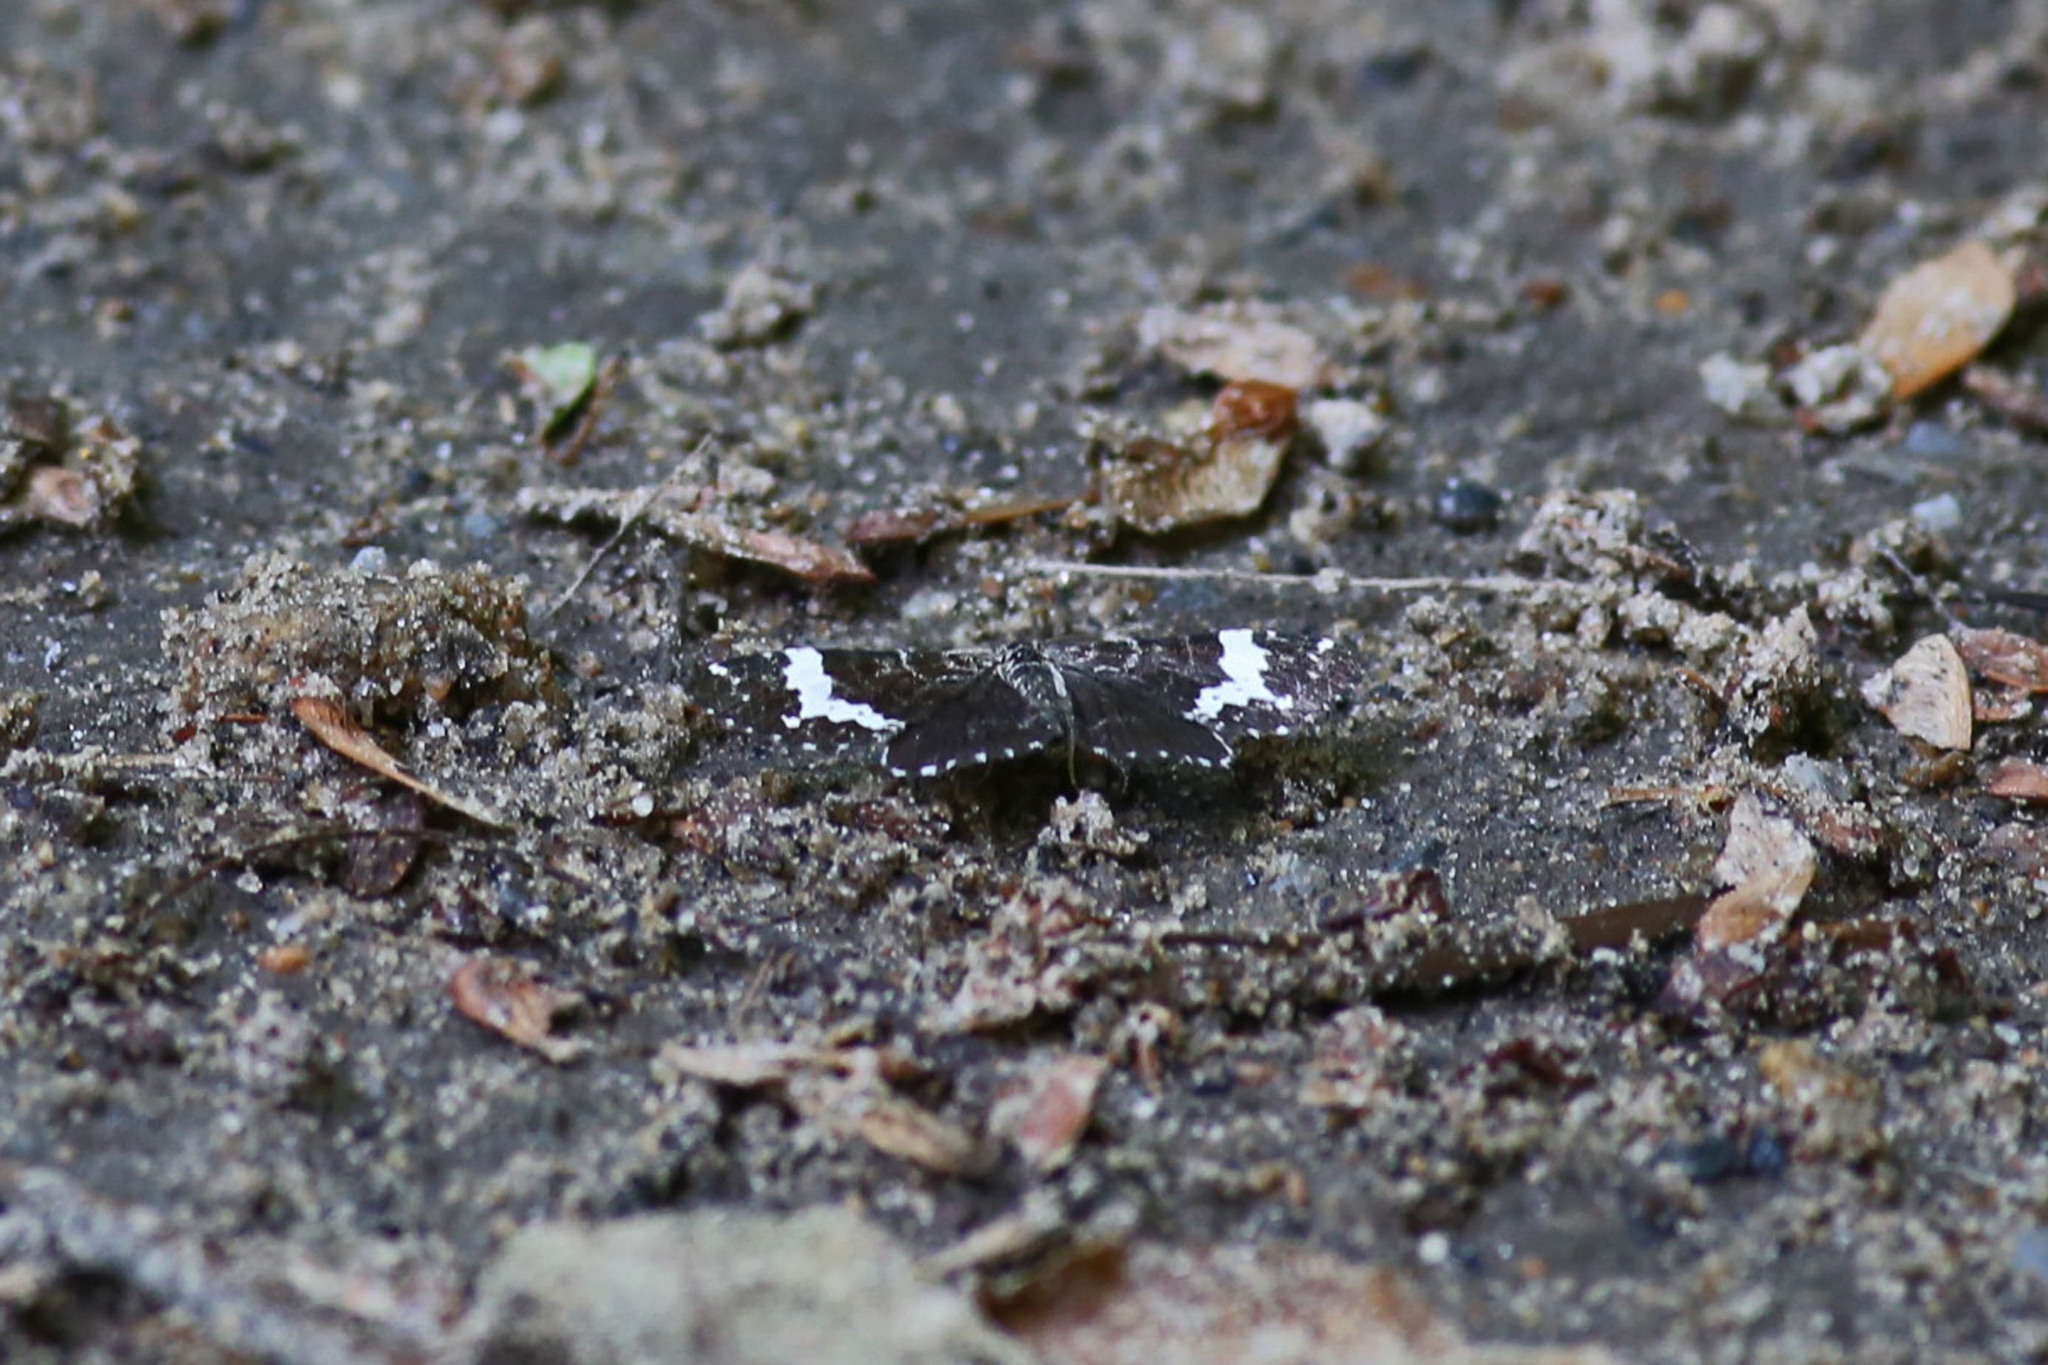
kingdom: Animalia
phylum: Arthropoda
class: Insecta
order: Lepidoptera
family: Geometridae
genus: Rheumaptera
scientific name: Rheumaptera
